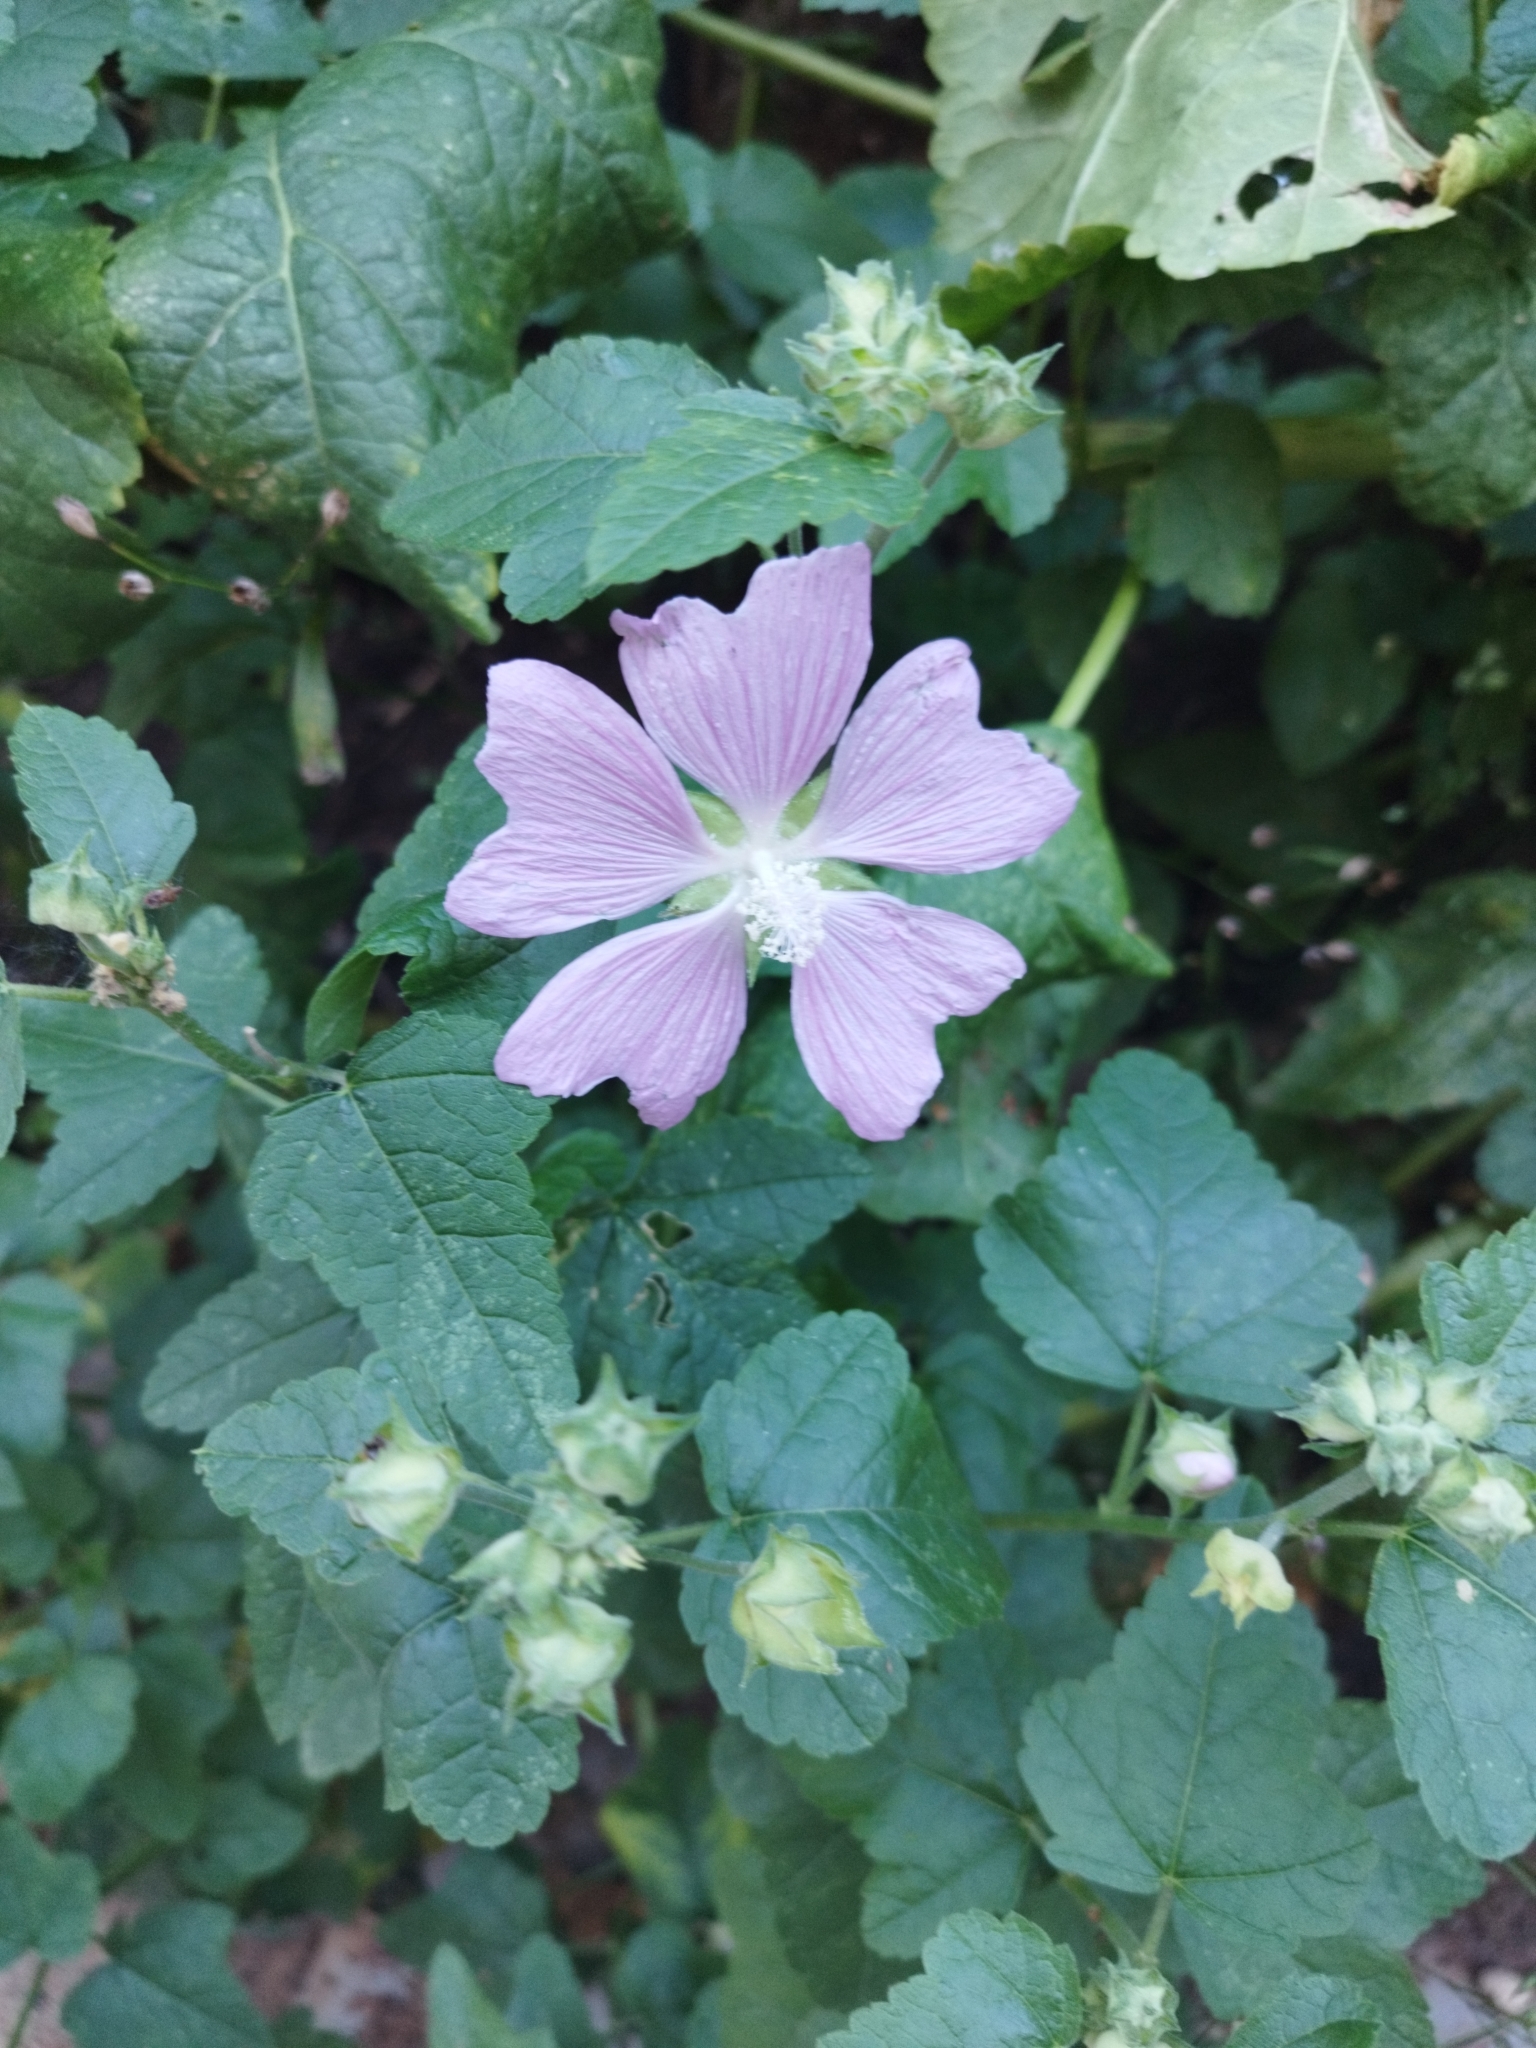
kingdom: Plantae
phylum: Tracheophyta
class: Magnoliopsida
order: Malvales
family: Malvaceae
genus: Malva
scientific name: Malva thuringiaca
